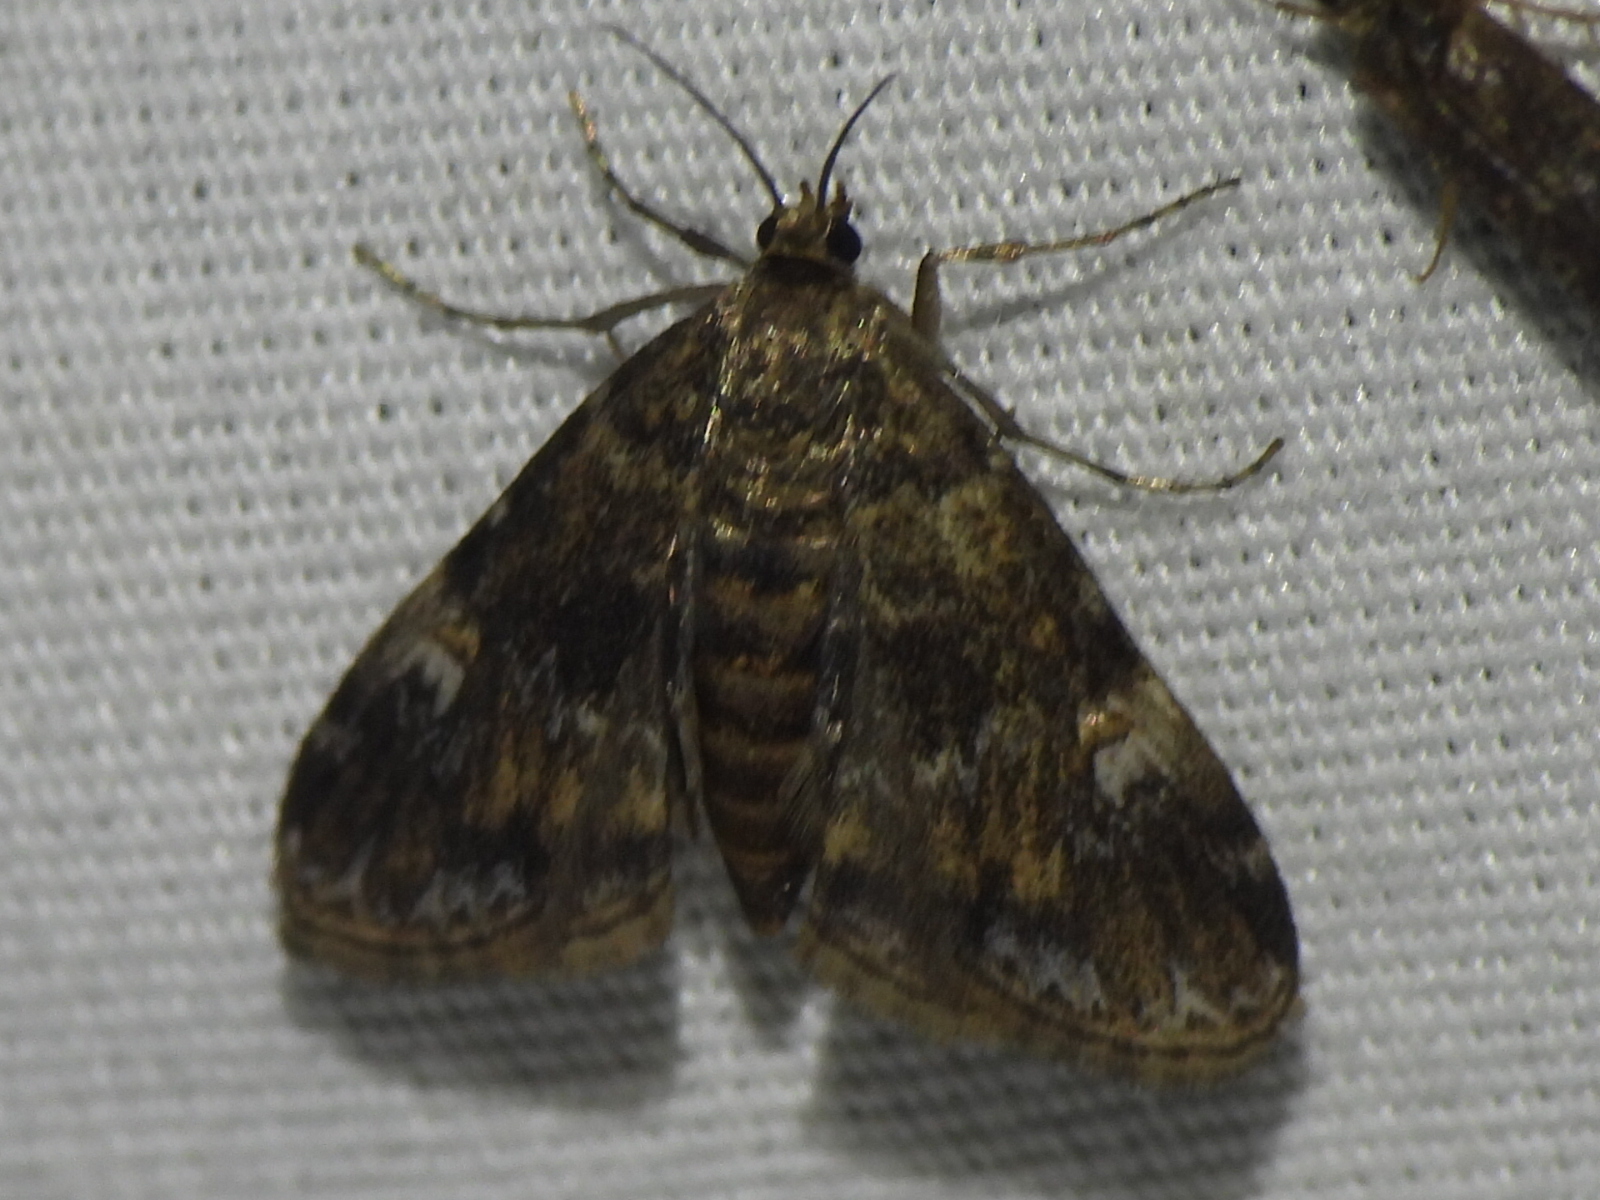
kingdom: Animalia
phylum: Arthropoda
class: Insecta
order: Lepidoptera
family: Crambidae
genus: Elophila
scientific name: Elophila obliteralis
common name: Waterlily leafcutter moth
